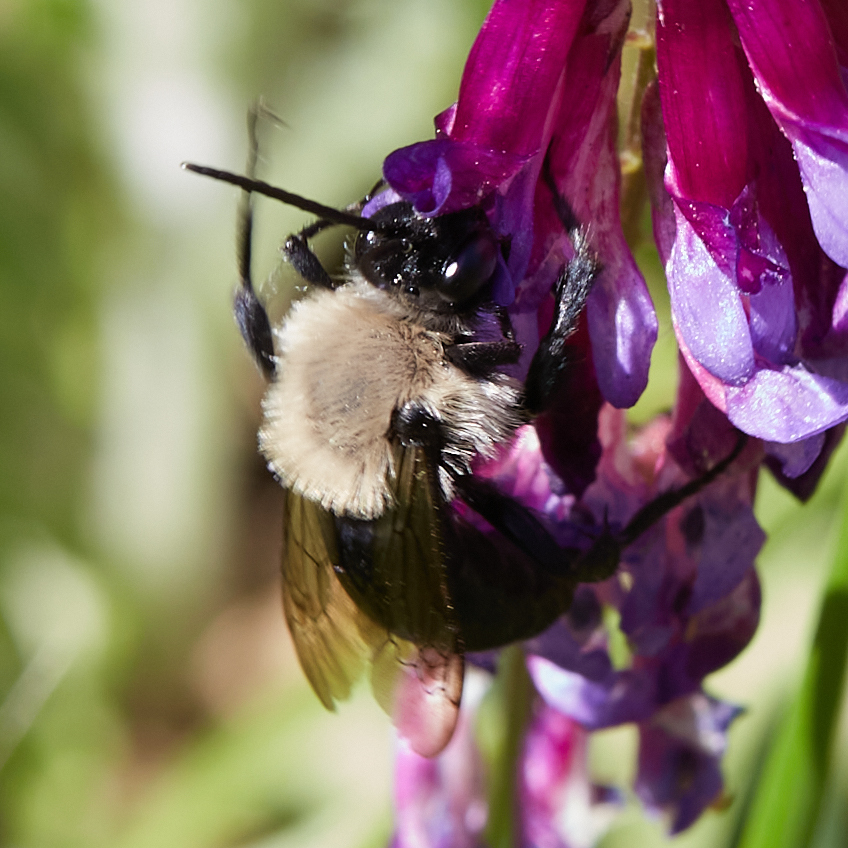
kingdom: Animalia
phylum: Arthropoda
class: Insecta
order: Hymenoptera
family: Apidae
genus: Melecta
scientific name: Melecta edwardsii
